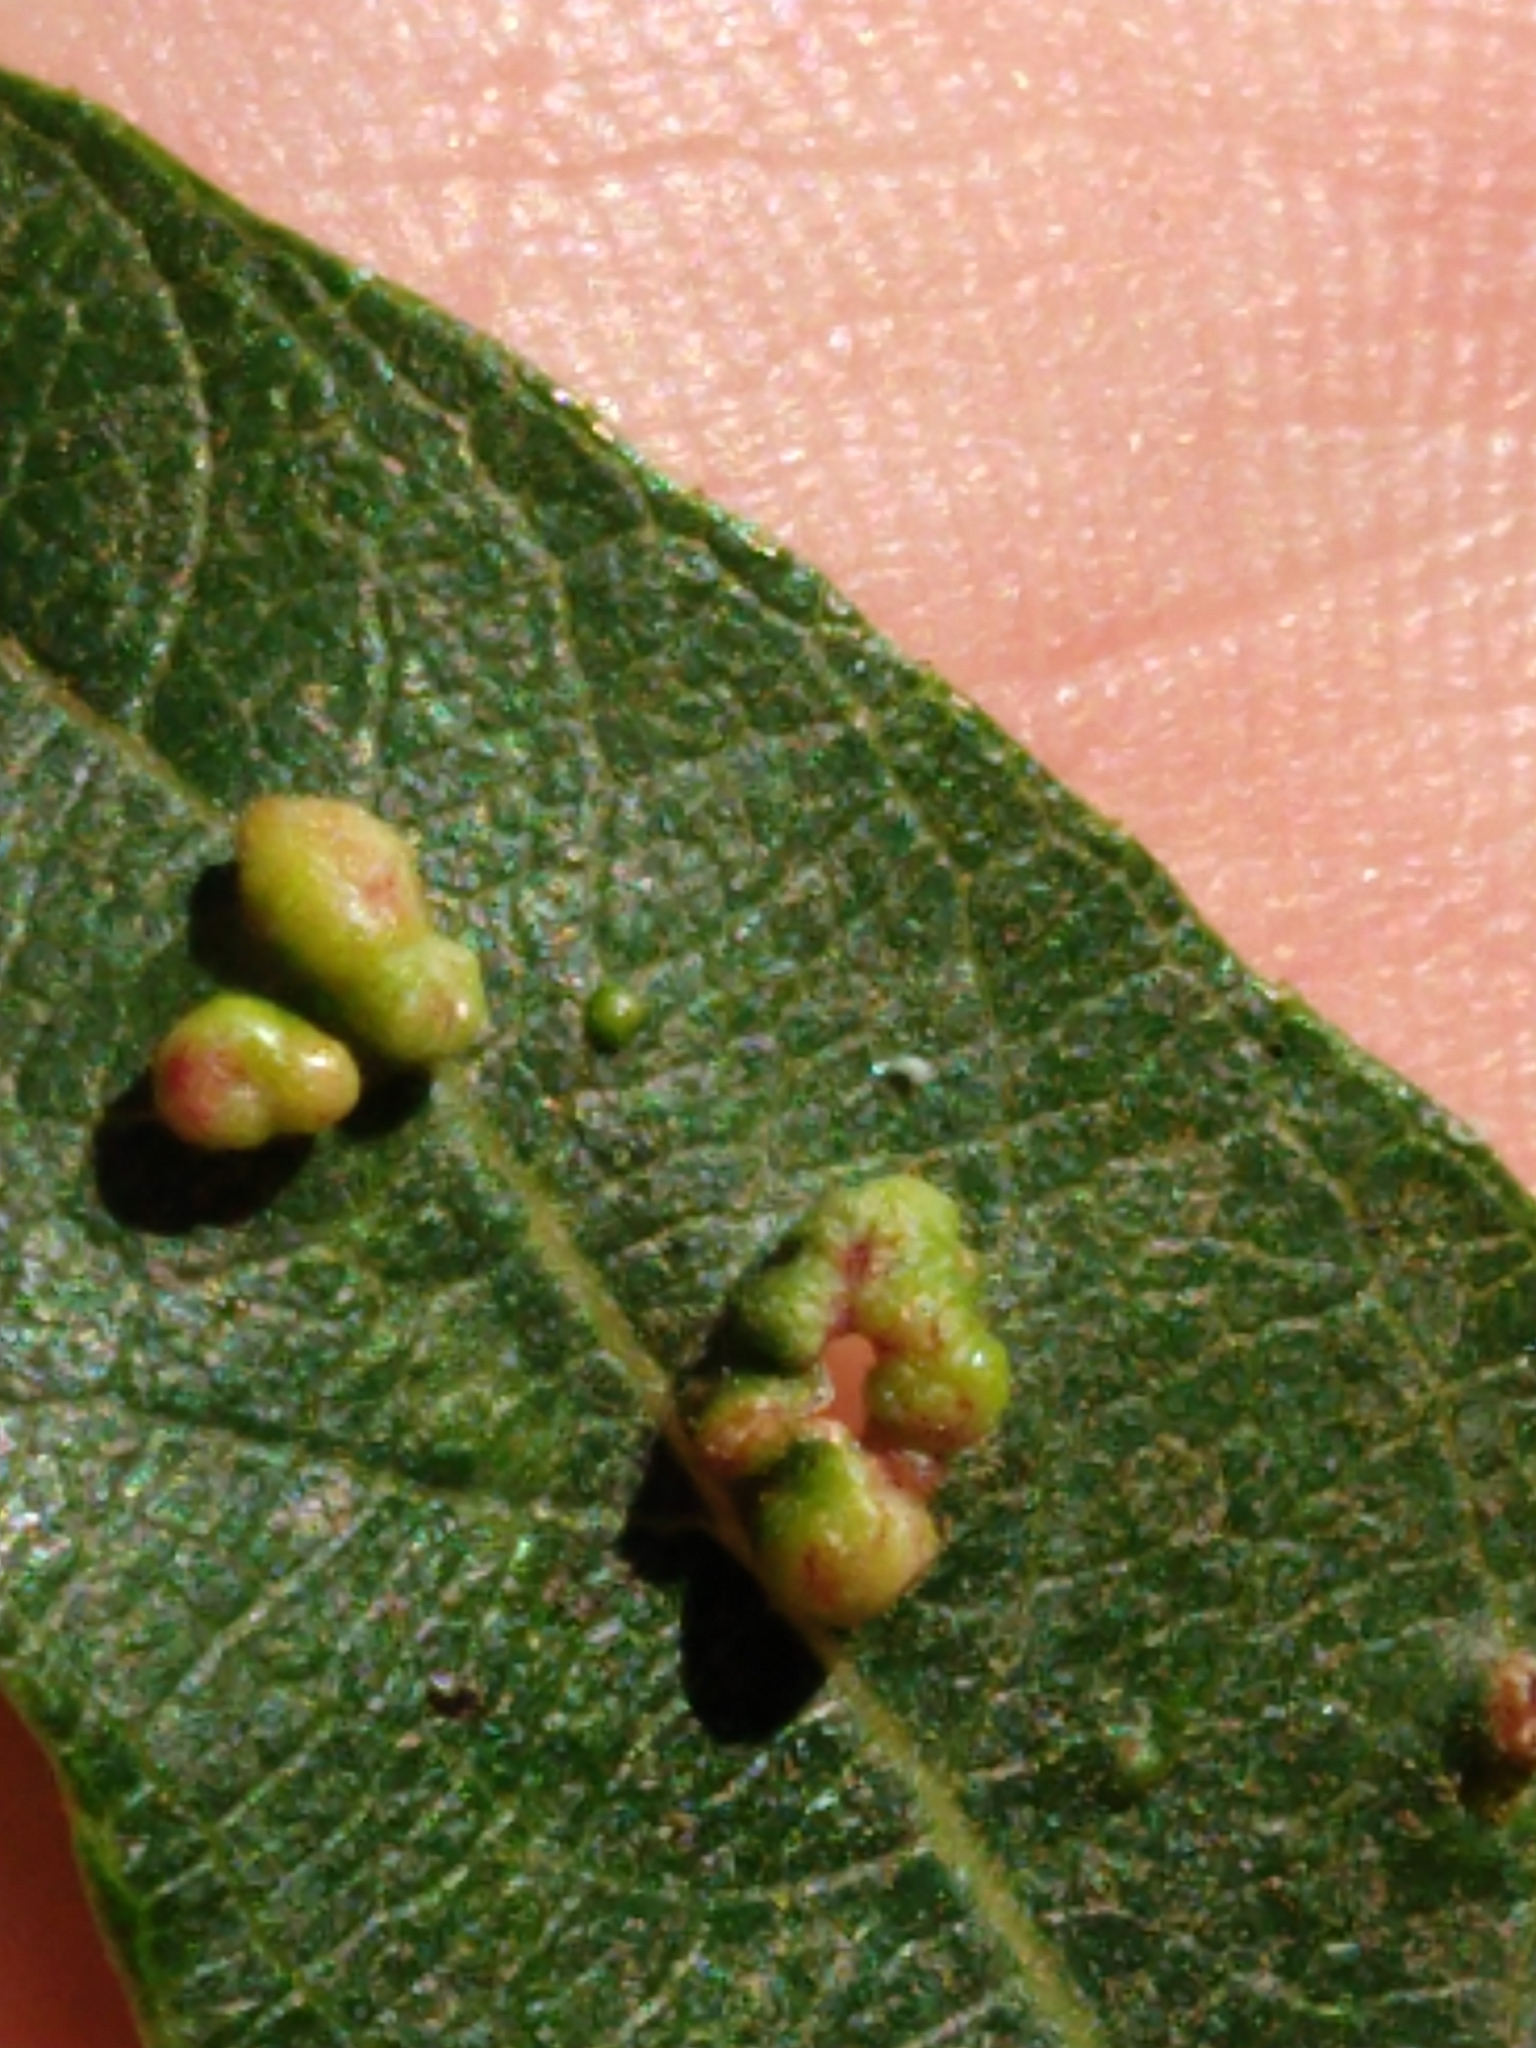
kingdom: Animalia
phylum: Arthropoda
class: Arachnida
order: Trombidiformes
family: Eriophyidae
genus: Aculus
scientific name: Aculus tetanothrix
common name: Willow bead gall mite
